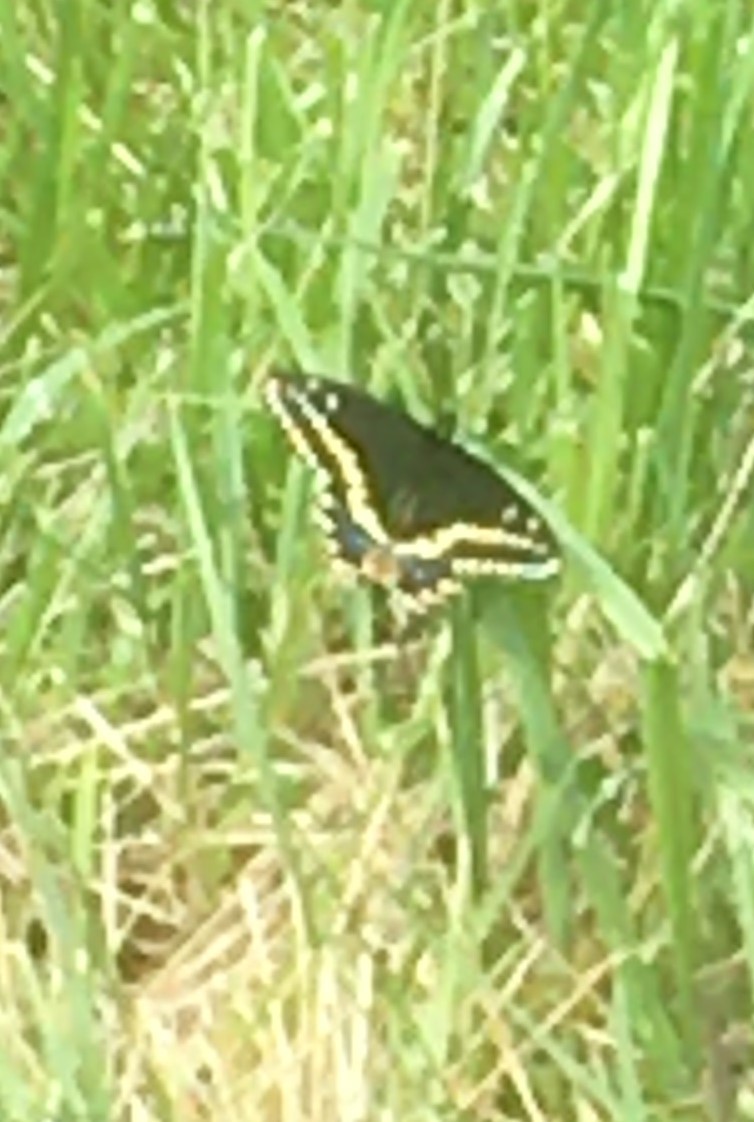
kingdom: Animalia
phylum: Arthropoda
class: Insecta
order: Lepidoptera
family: Papilionidae
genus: Papilio
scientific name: Papilio polyxenes
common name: Black swallowtail
